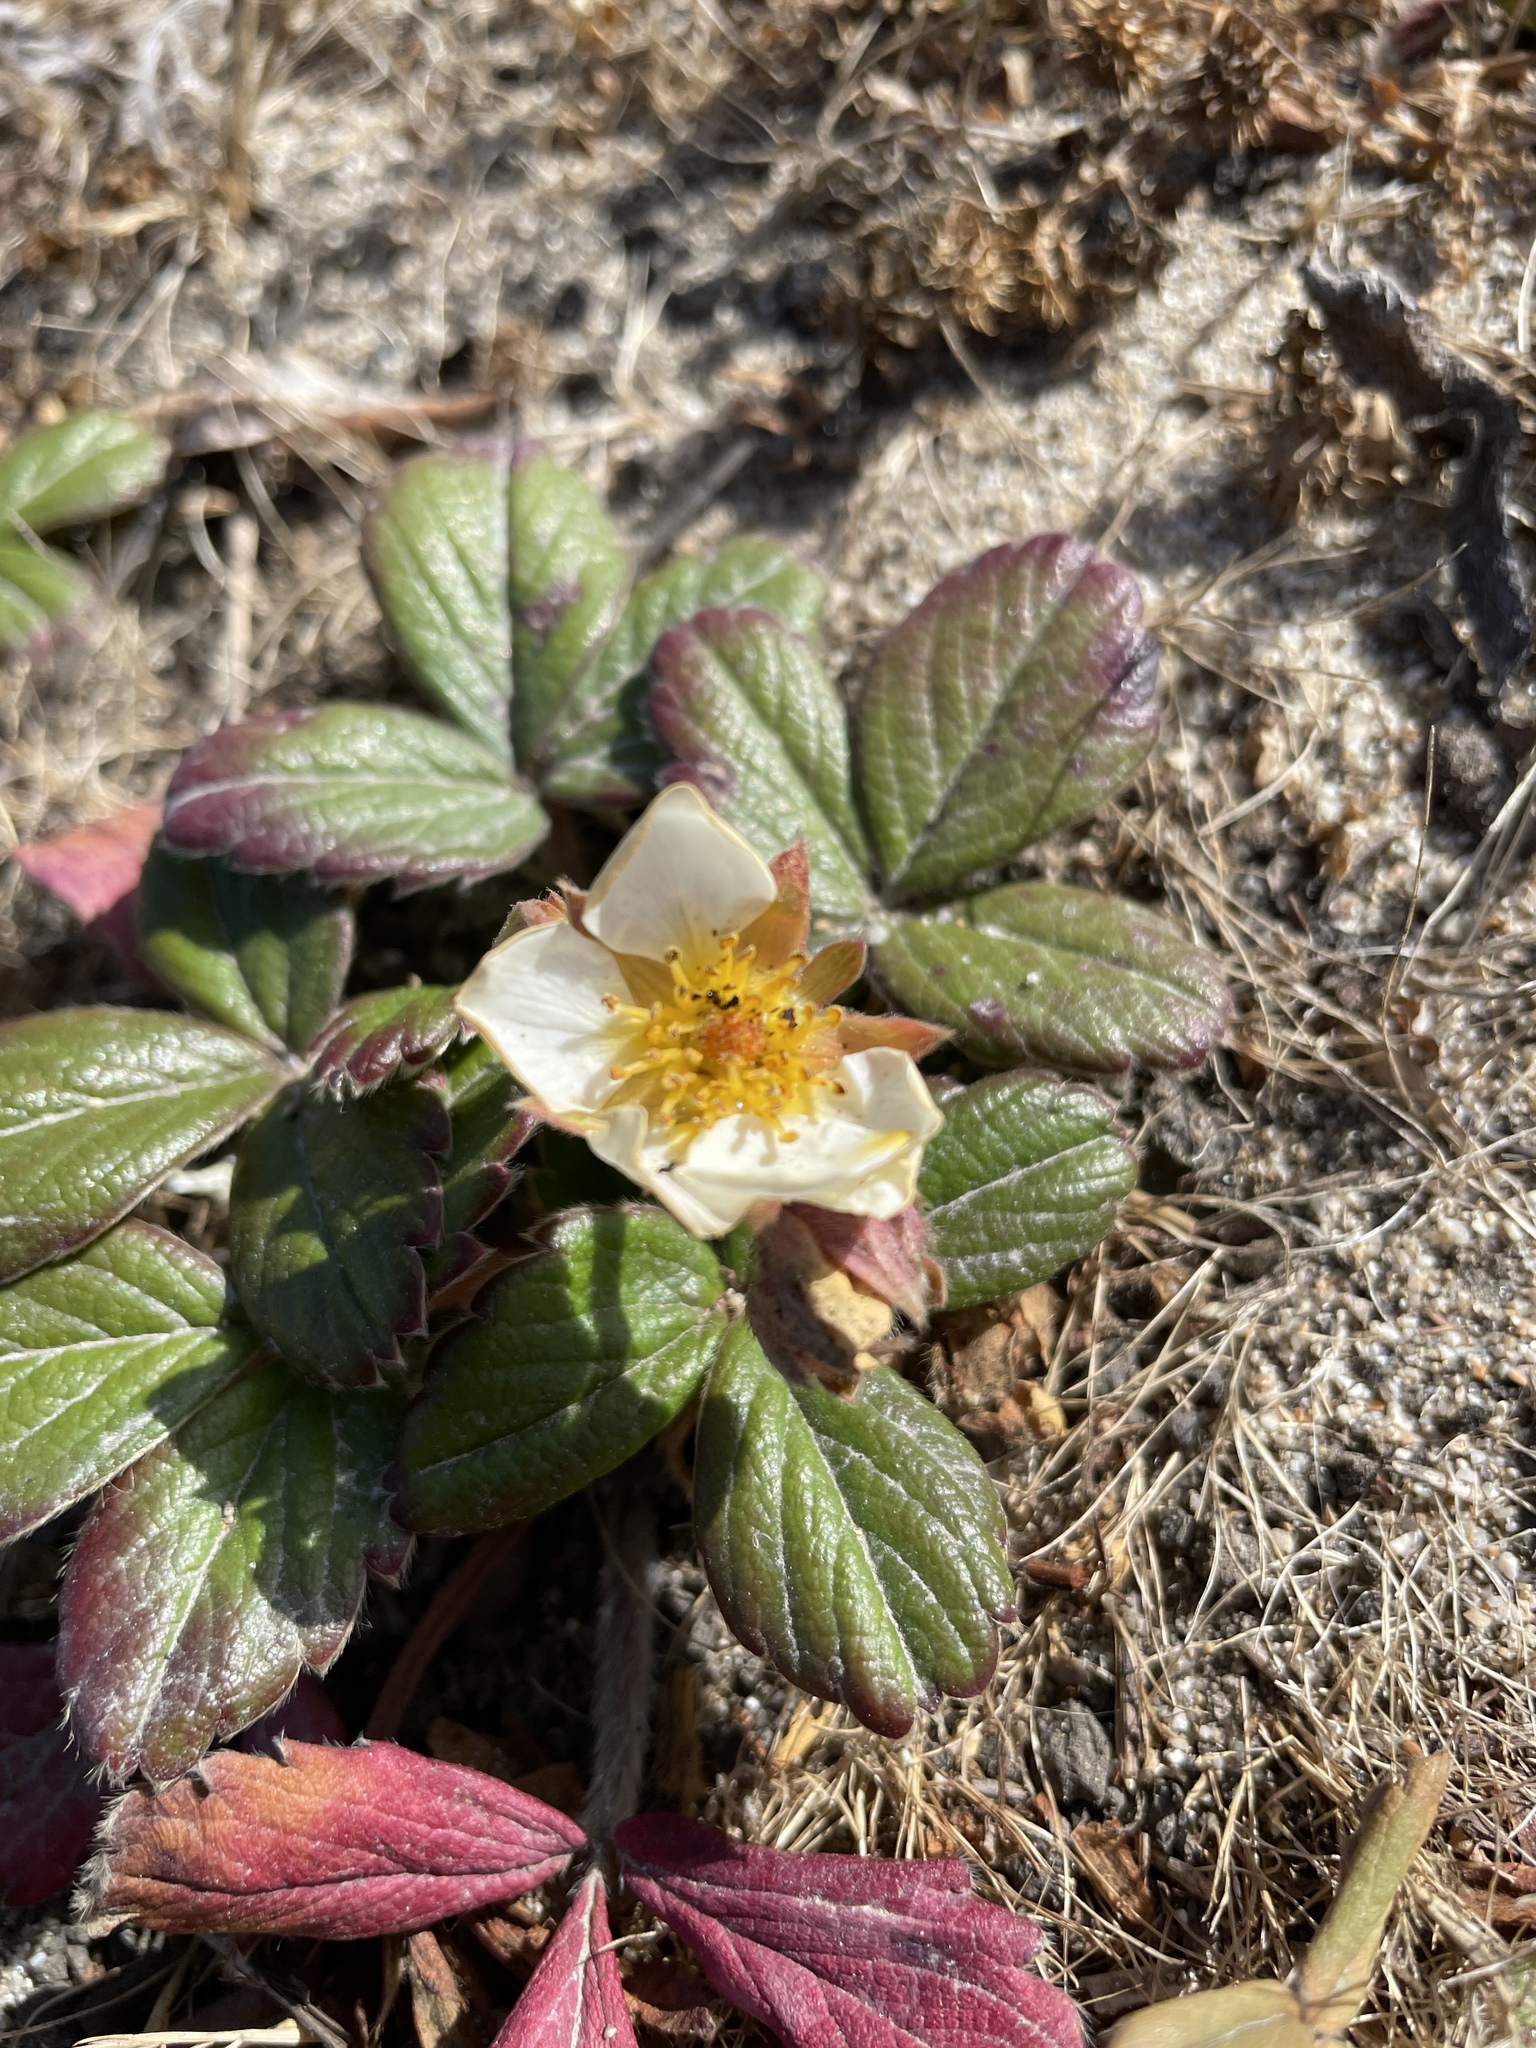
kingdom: Plantae
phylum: Tracheophyta
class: Magnoliopsida
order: Rosales
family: Rosaceae
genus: Fragaria
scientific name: Fragaria chiloensis
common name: Beach strawberry
